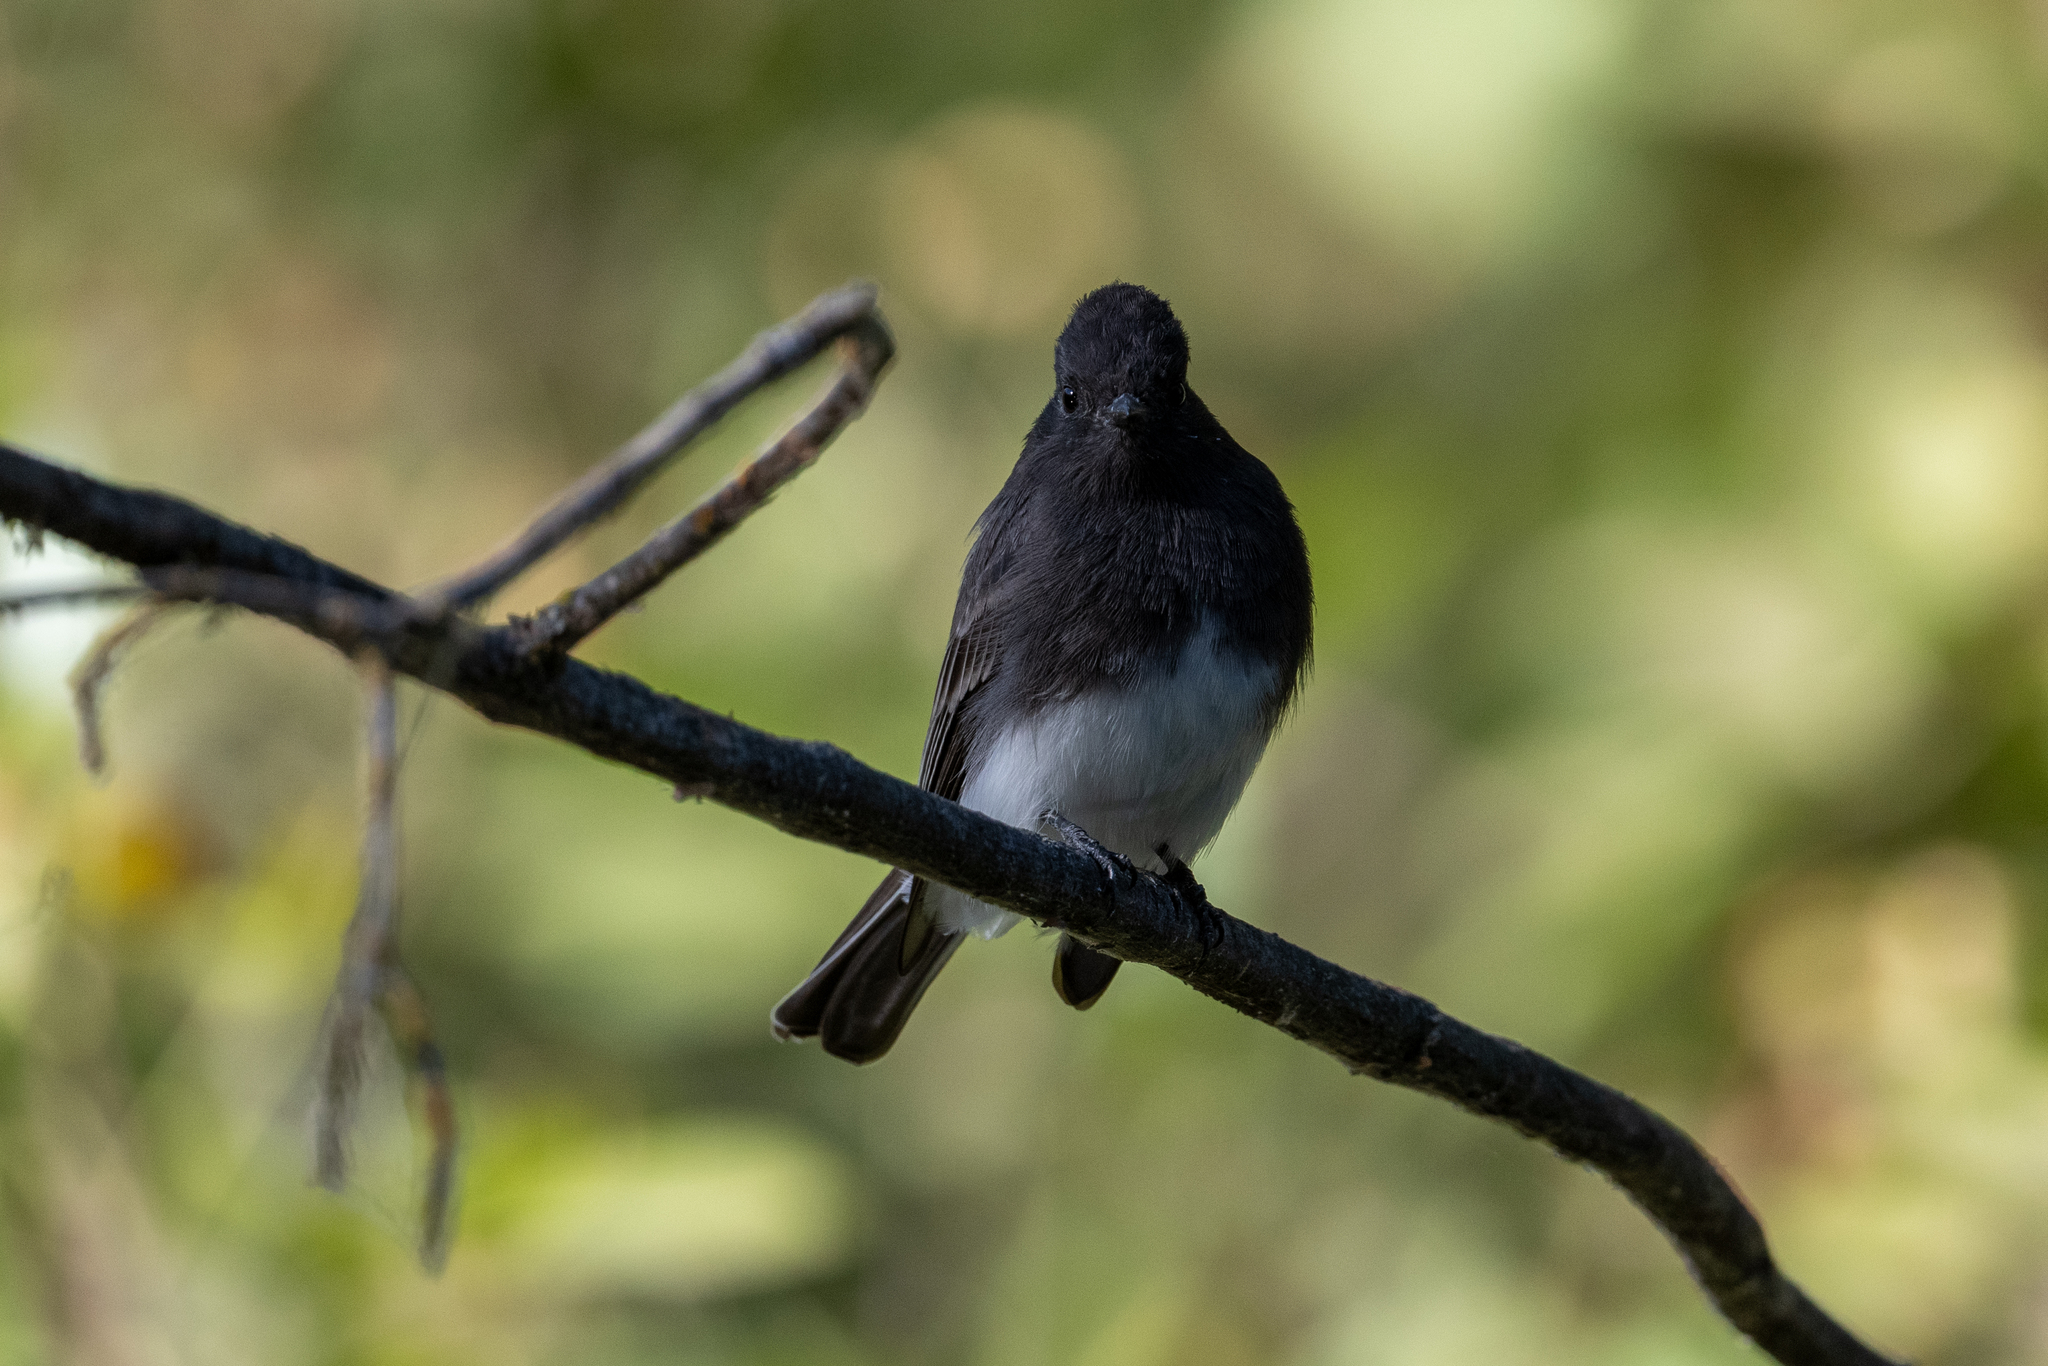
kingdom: Animalia
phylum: Chordata
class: Aves
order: Passeriformes
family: Tyrannidae
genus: Sayornis
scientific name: Sayornis nigricans
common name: Black phoebe
